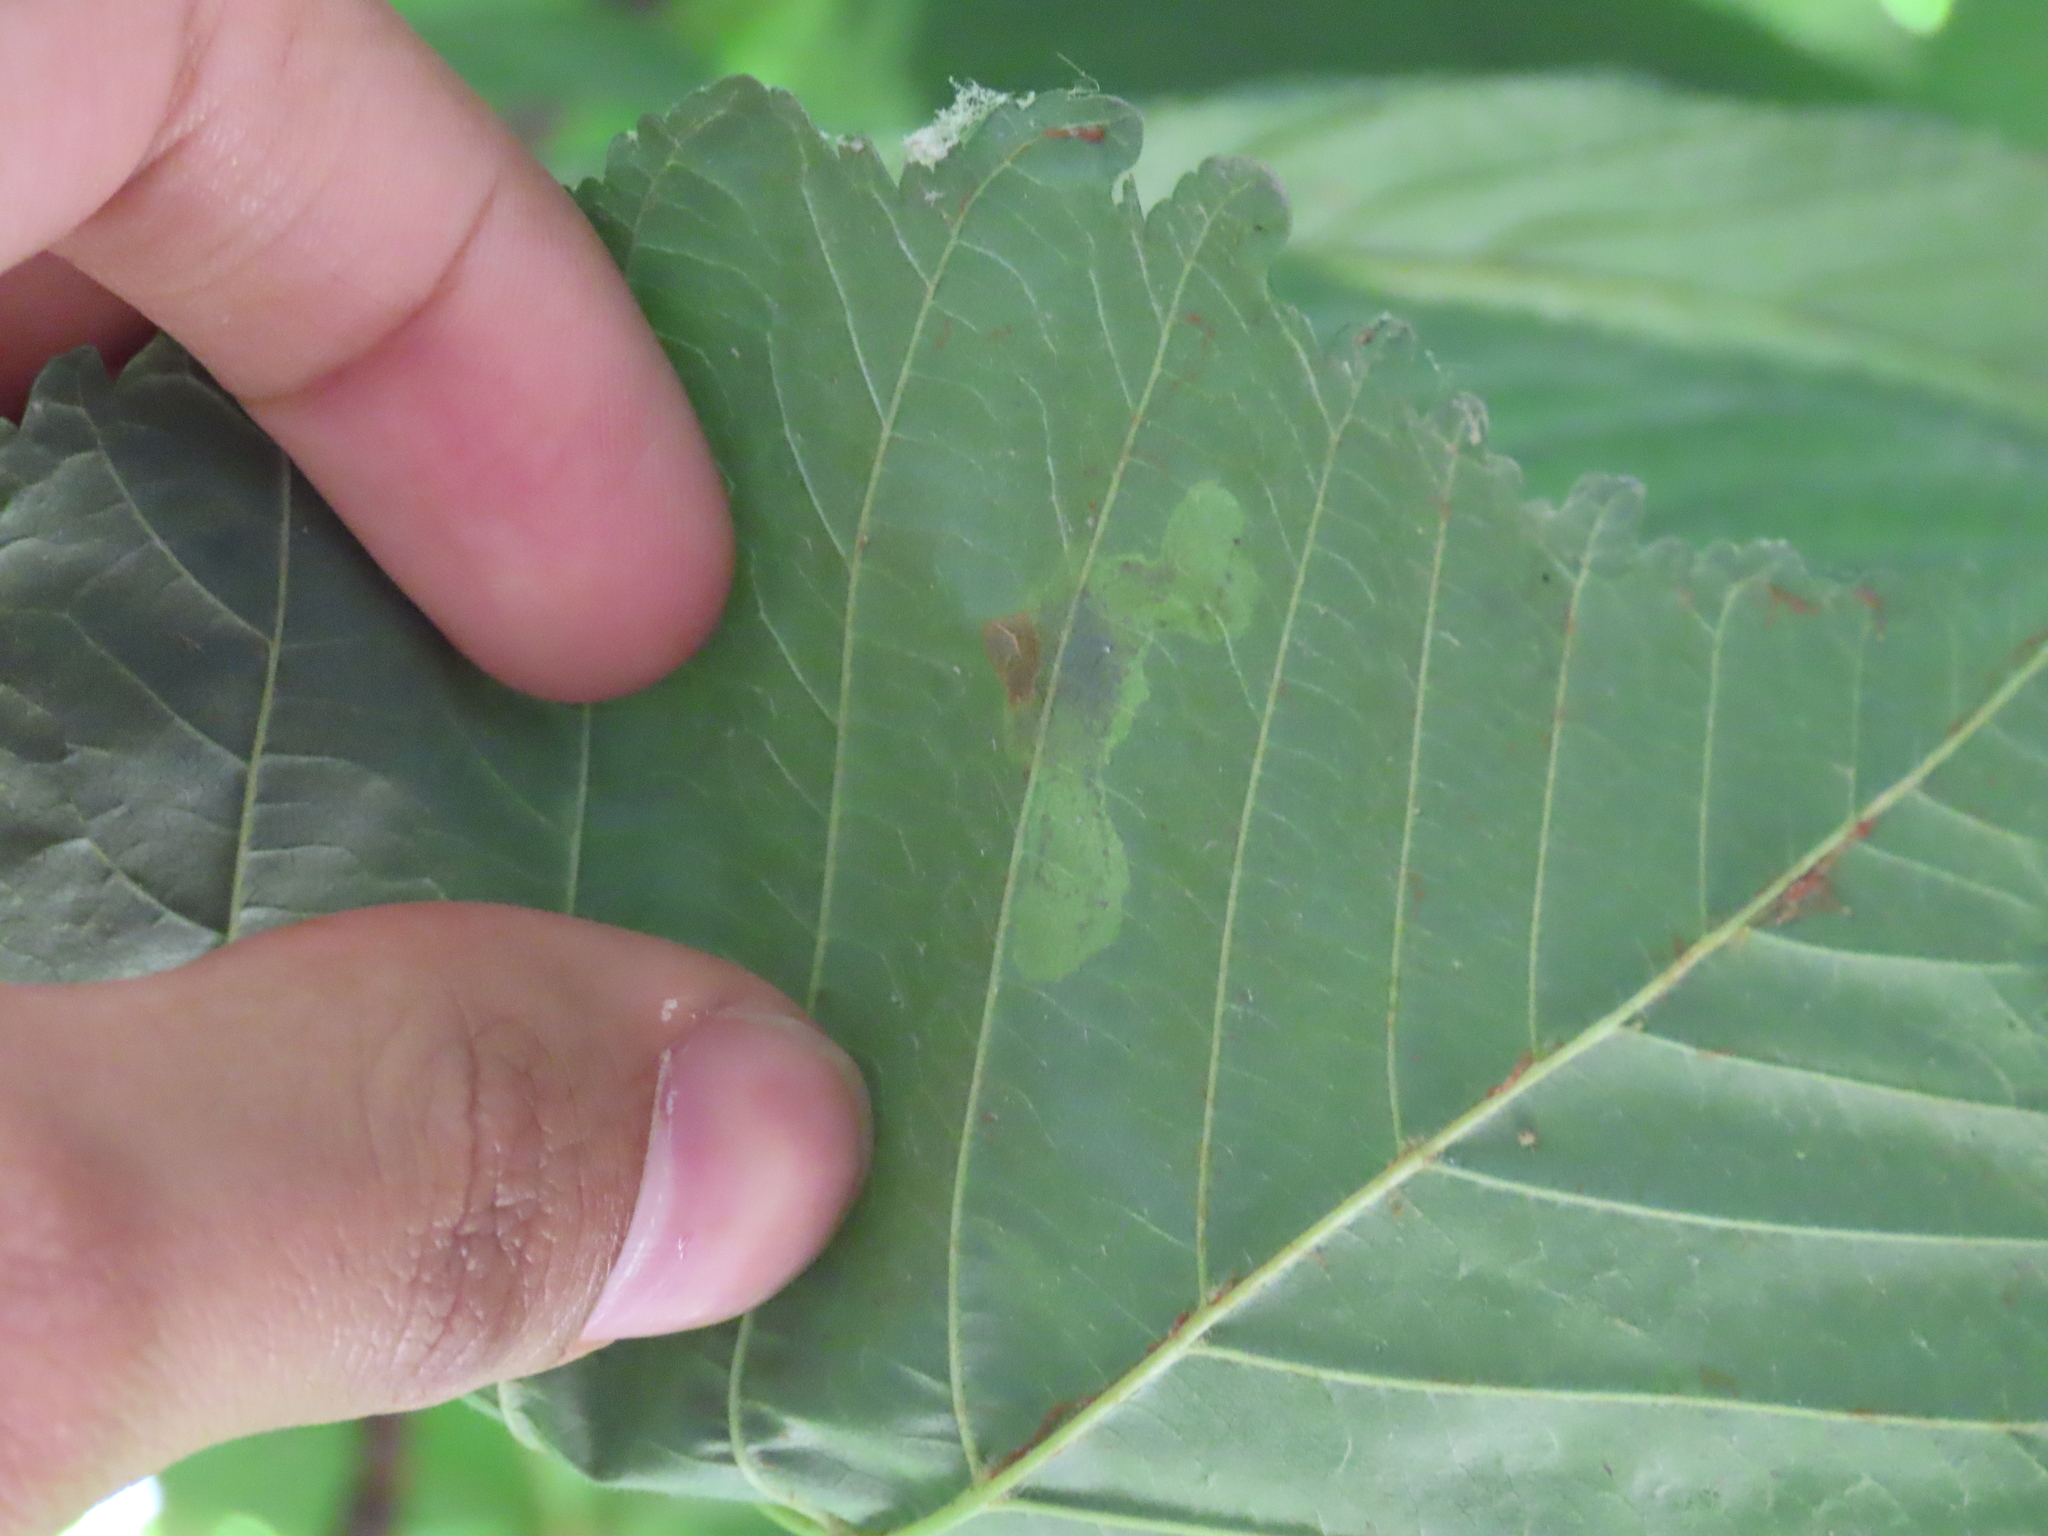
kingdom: Animalia
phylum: Arthropoda
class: Insecta
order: Lepidoptera
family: Gracillariidae
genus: Cameraria
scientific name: Cameraria ohridella
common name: Horse-chestnut leaf-miner
